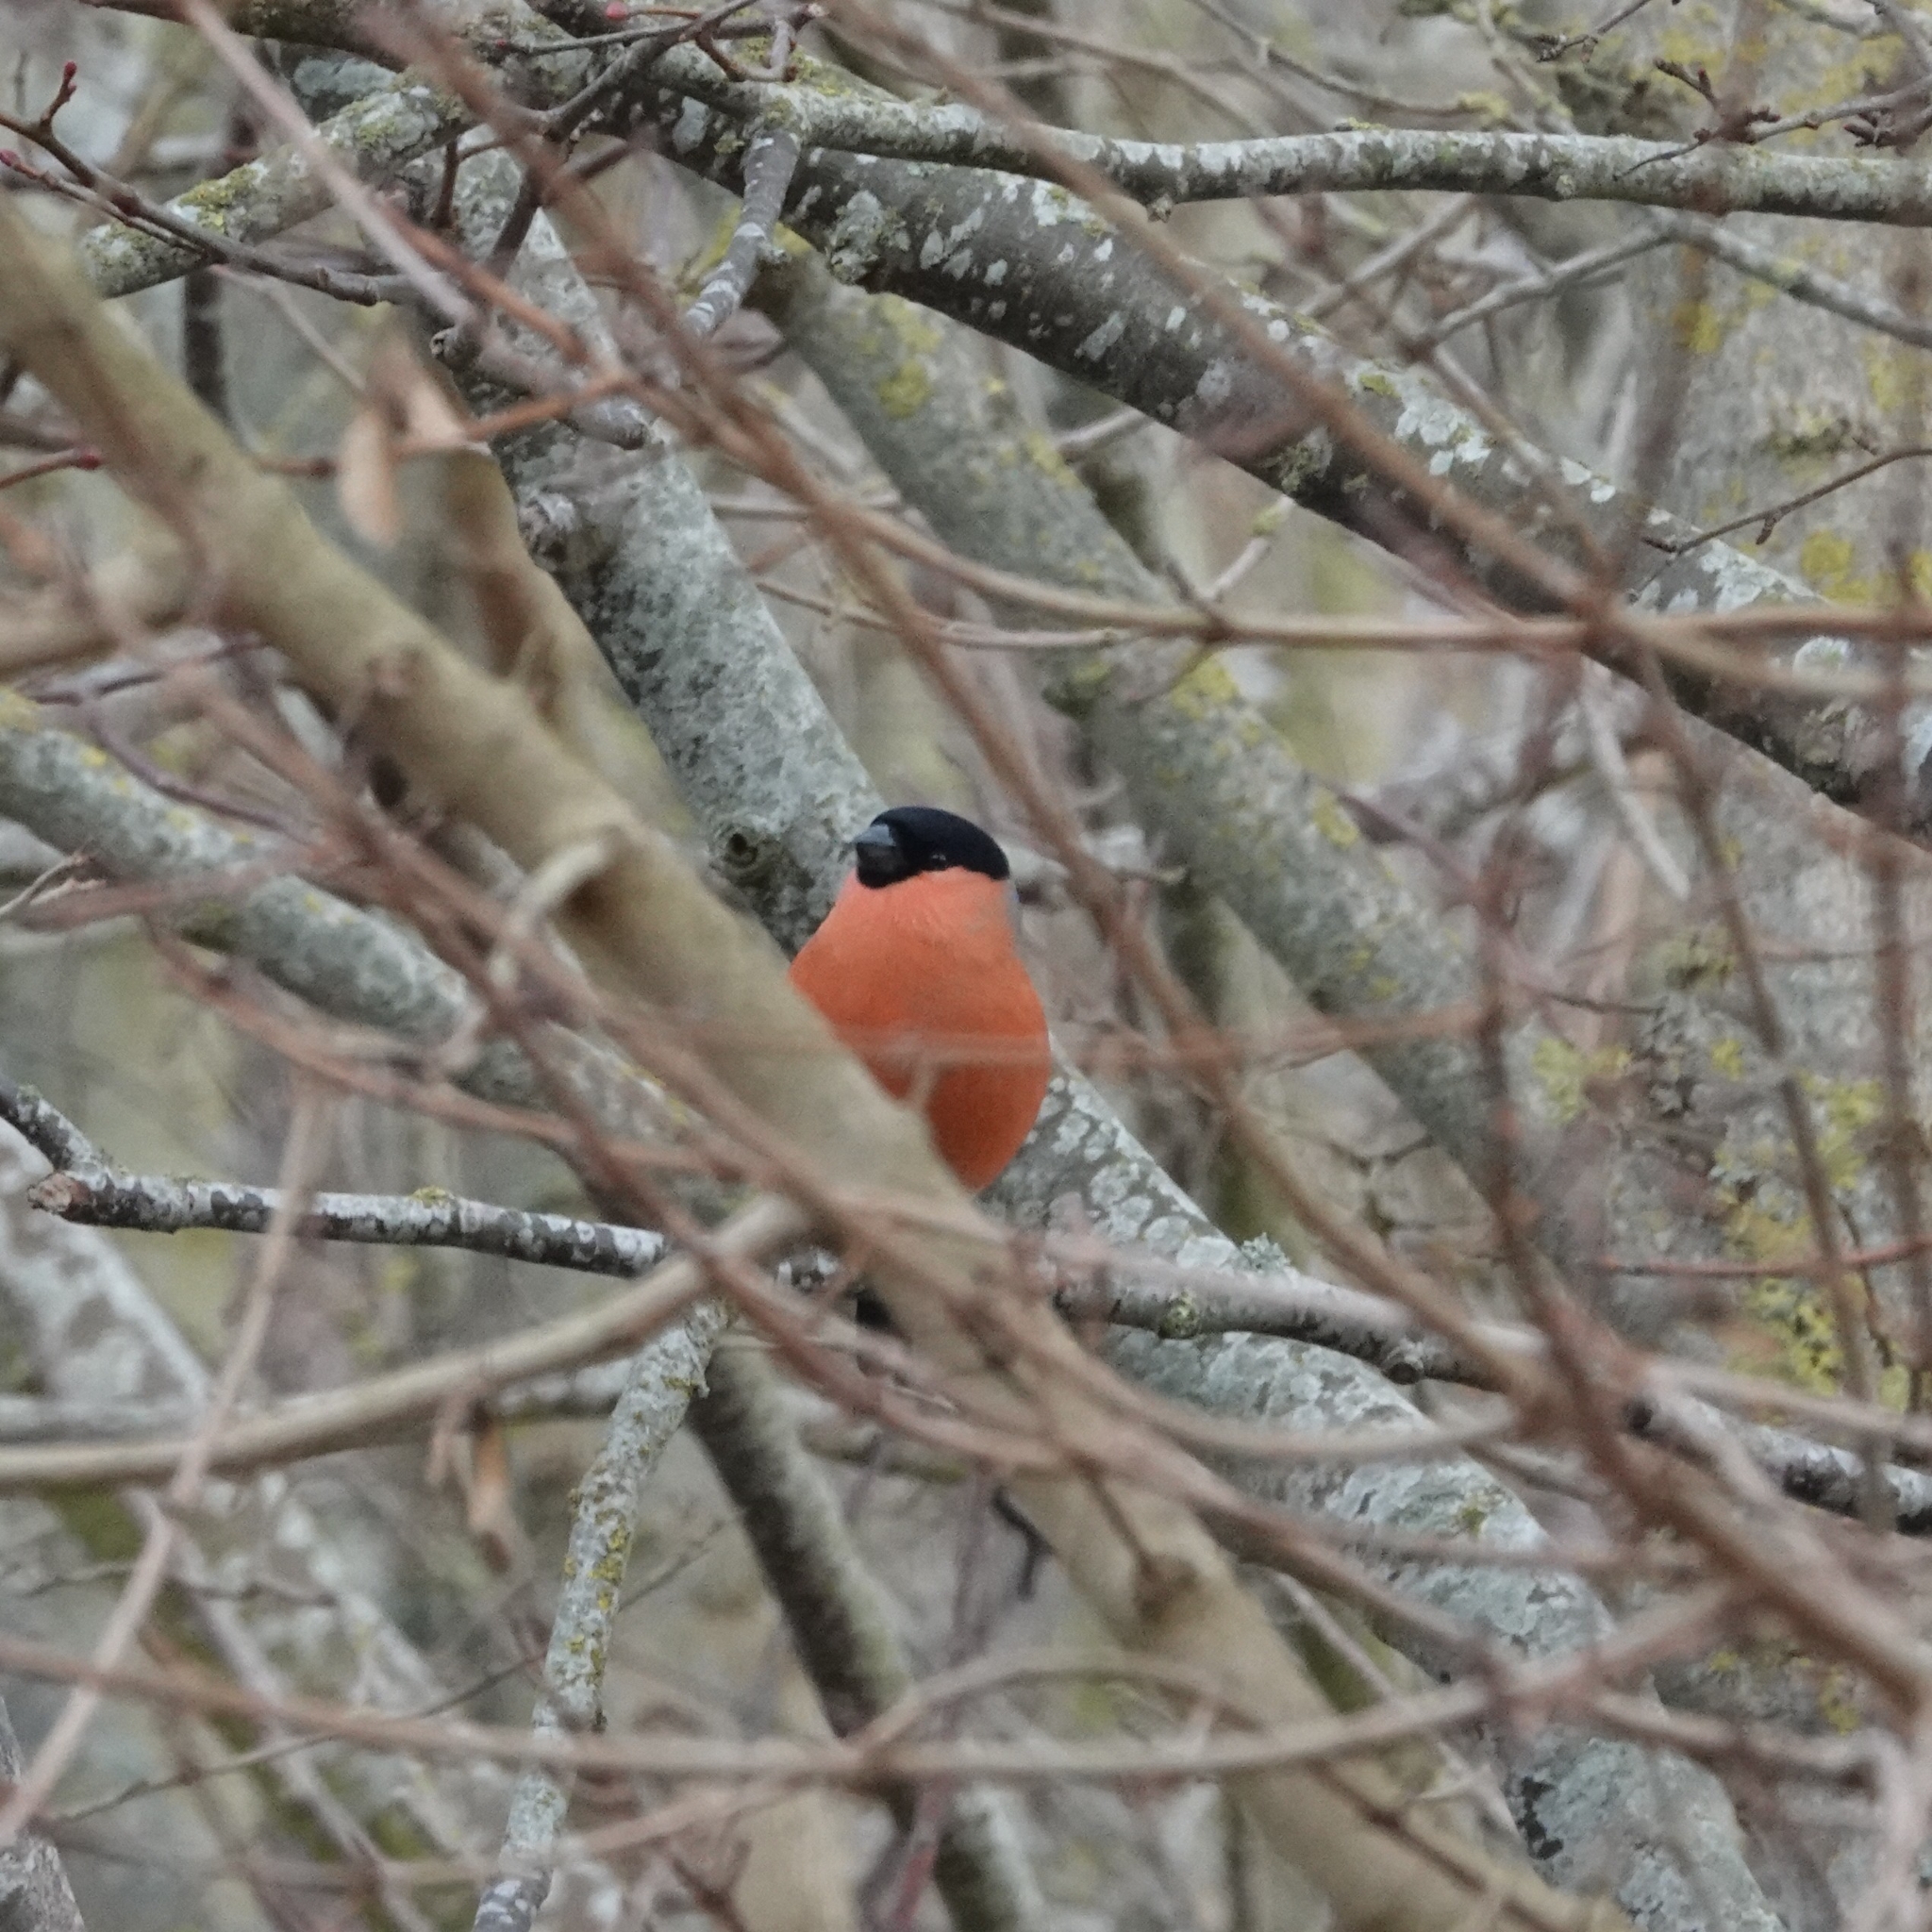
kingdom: Animalia
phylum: Chordata
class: Aves
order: Passeriformes
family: Fringillidae
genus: Pyrrhula
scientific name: Pyrrhula pyrrhula
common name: Eurasian bullfinch
